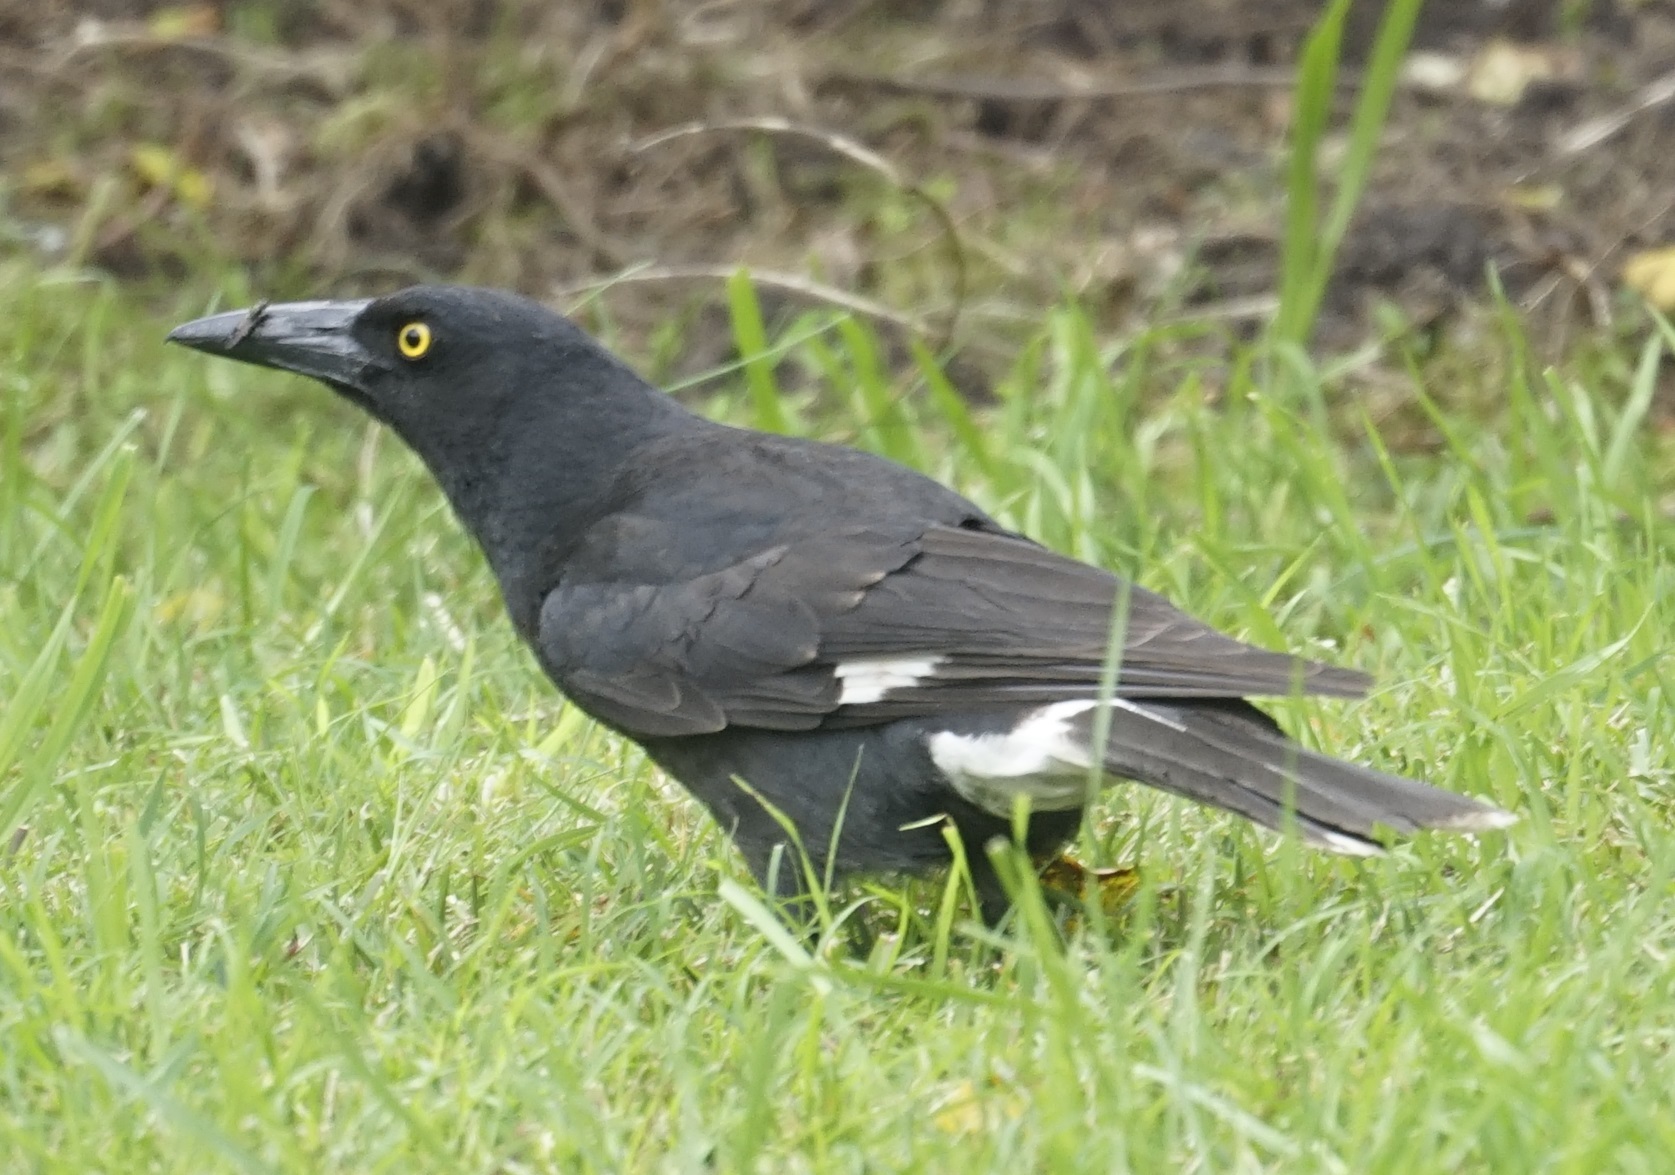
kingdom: Animalia
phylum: Chordata
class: Aves
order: Passeriformes
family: Cracticidae
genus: Strepera
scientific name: Strepera graculina
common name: Pied currawong
